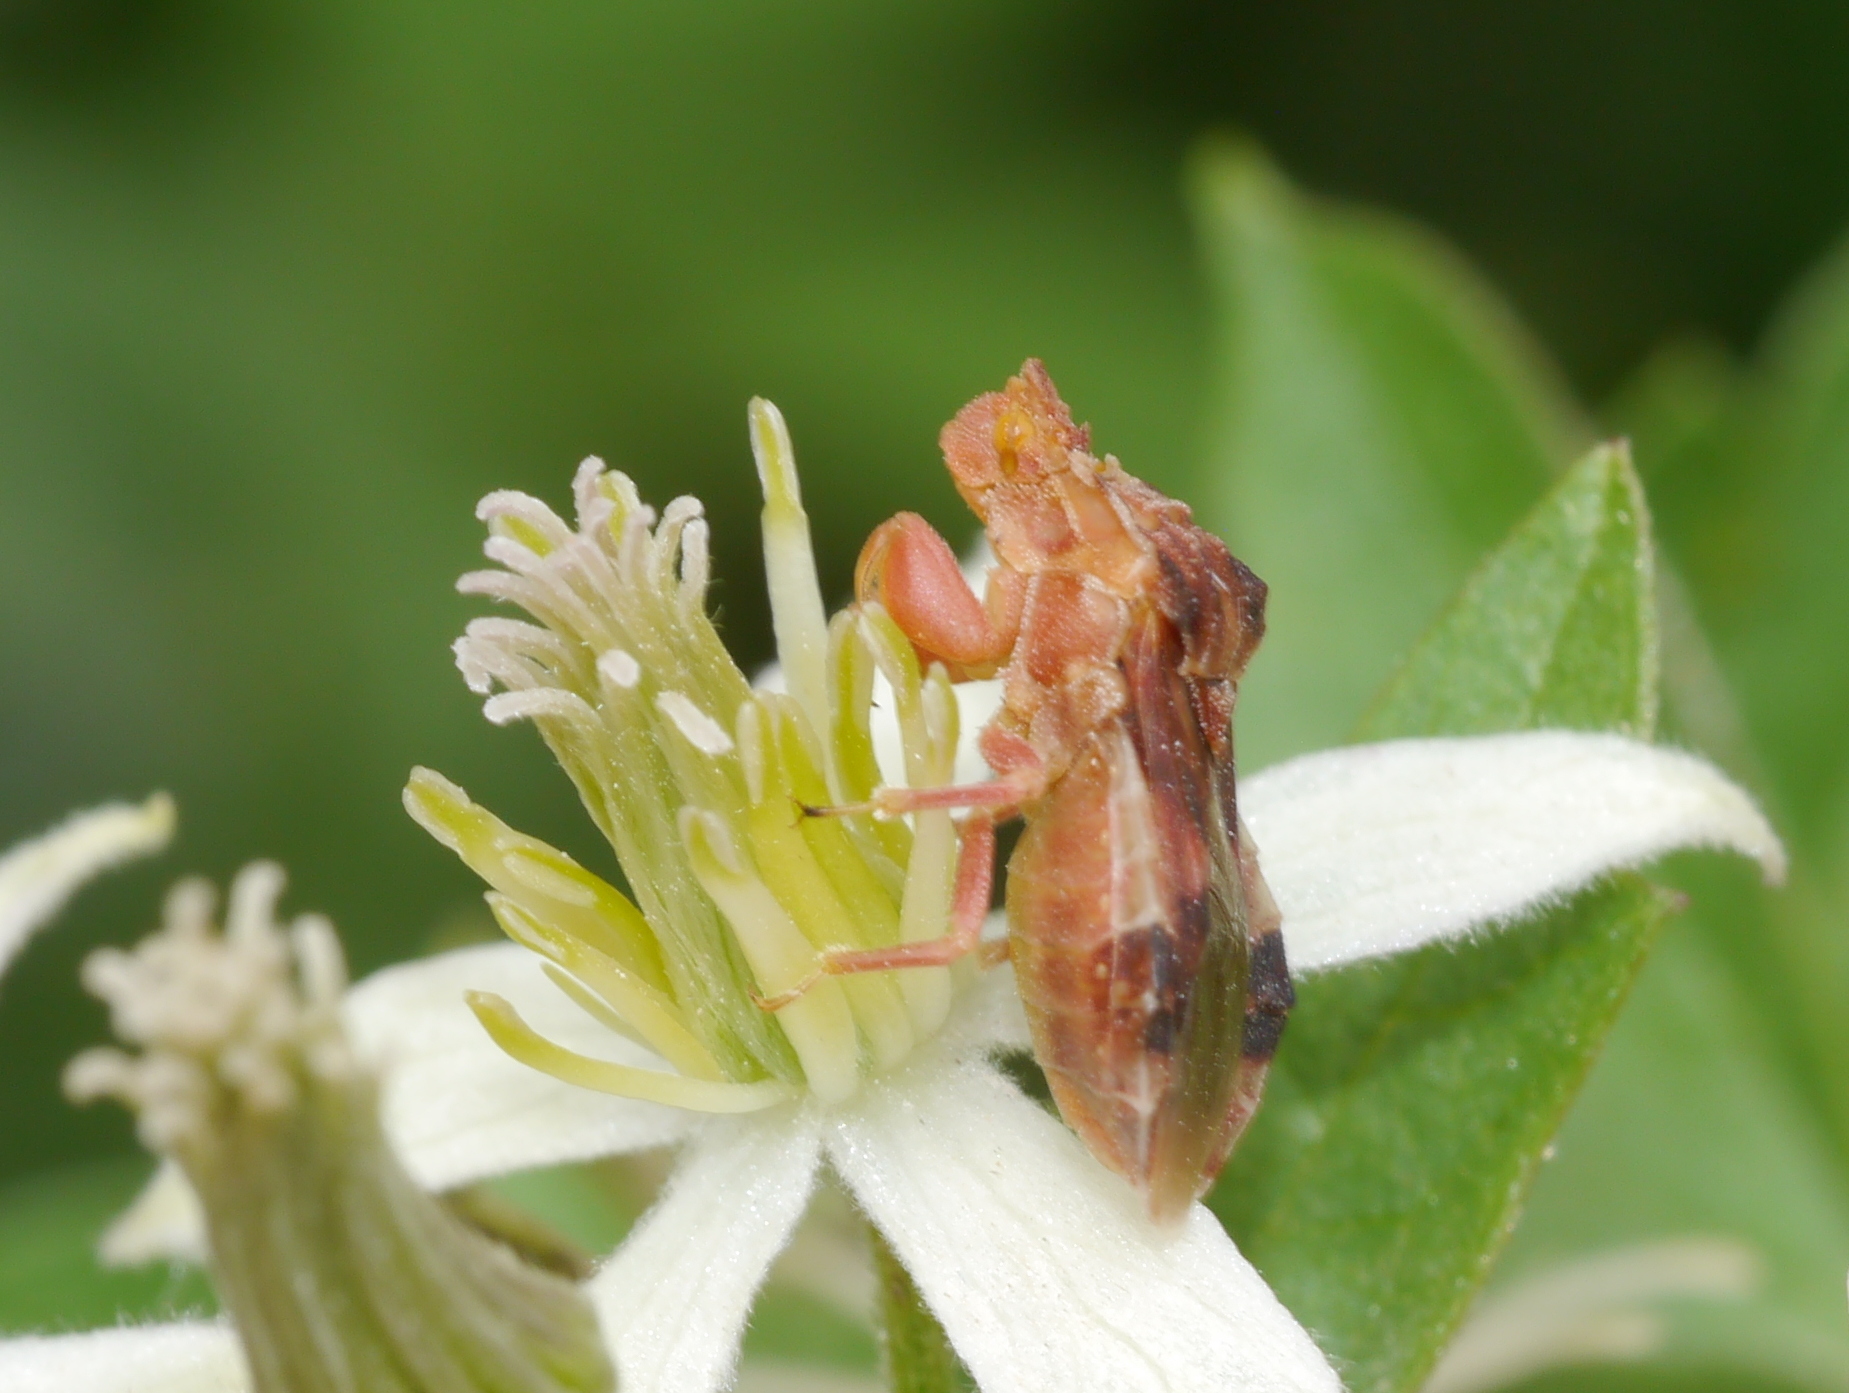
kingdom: Animalia
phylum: Arthropoda
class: Insecta
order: Hemiptera
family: Reduviidae
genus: Phymata
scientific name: Phymata borica
